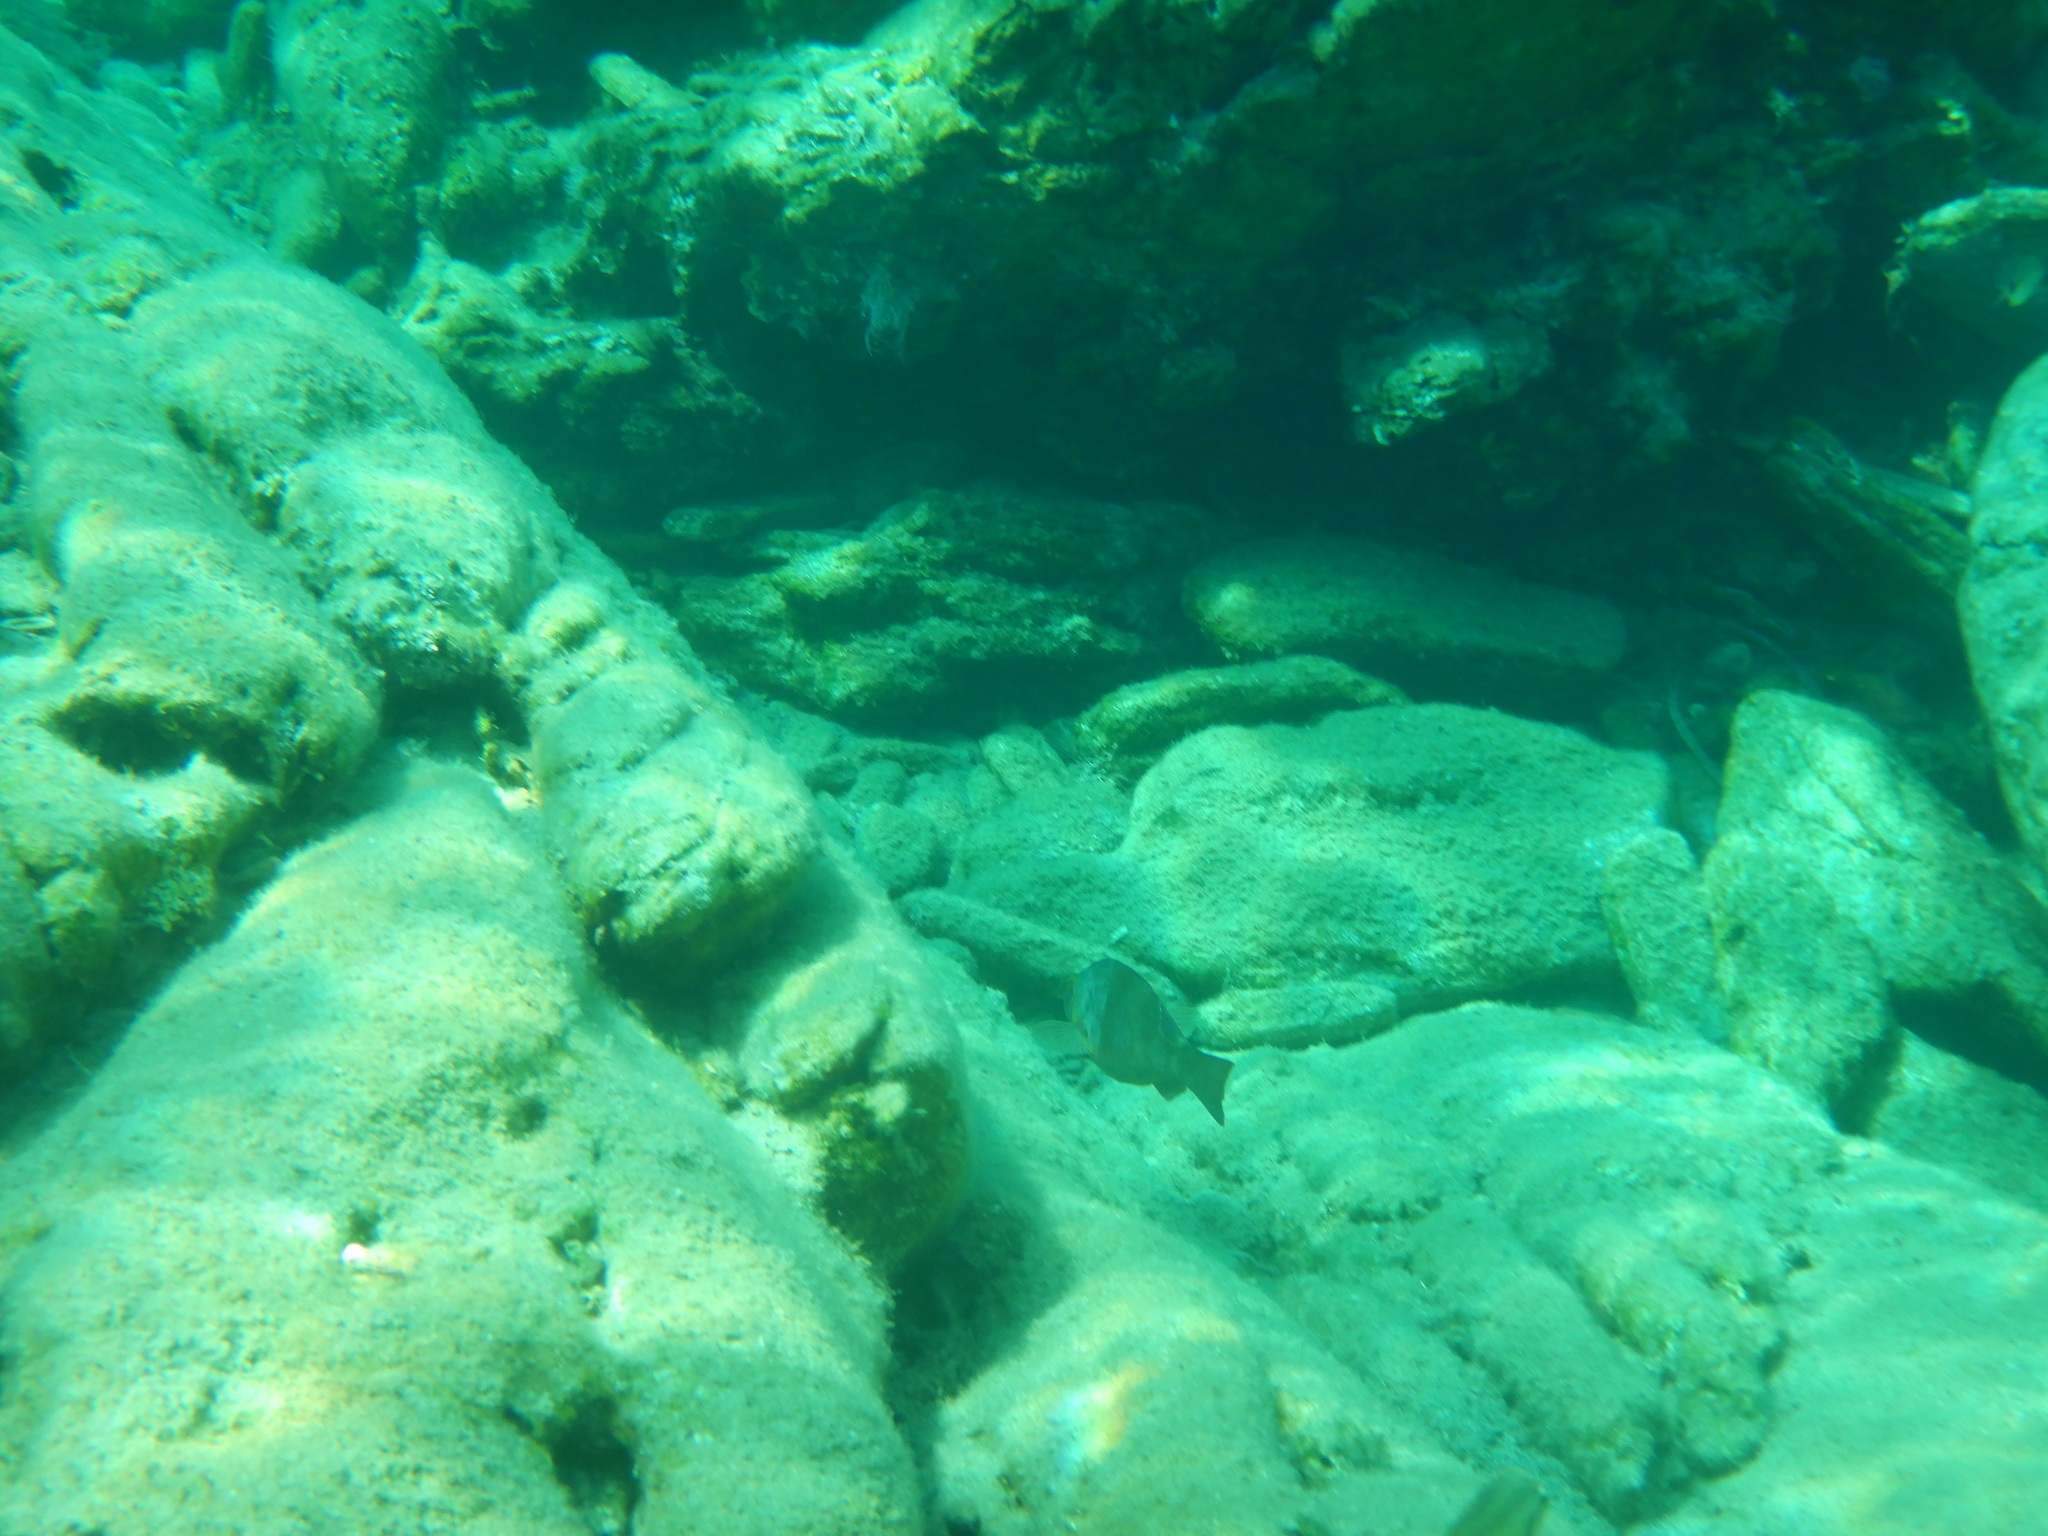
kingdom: Animalia
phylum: Chordata
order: Perciformes
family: Scaridae
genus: Sparisoma
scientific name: Sparisoma cretense
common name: Parrotfish
